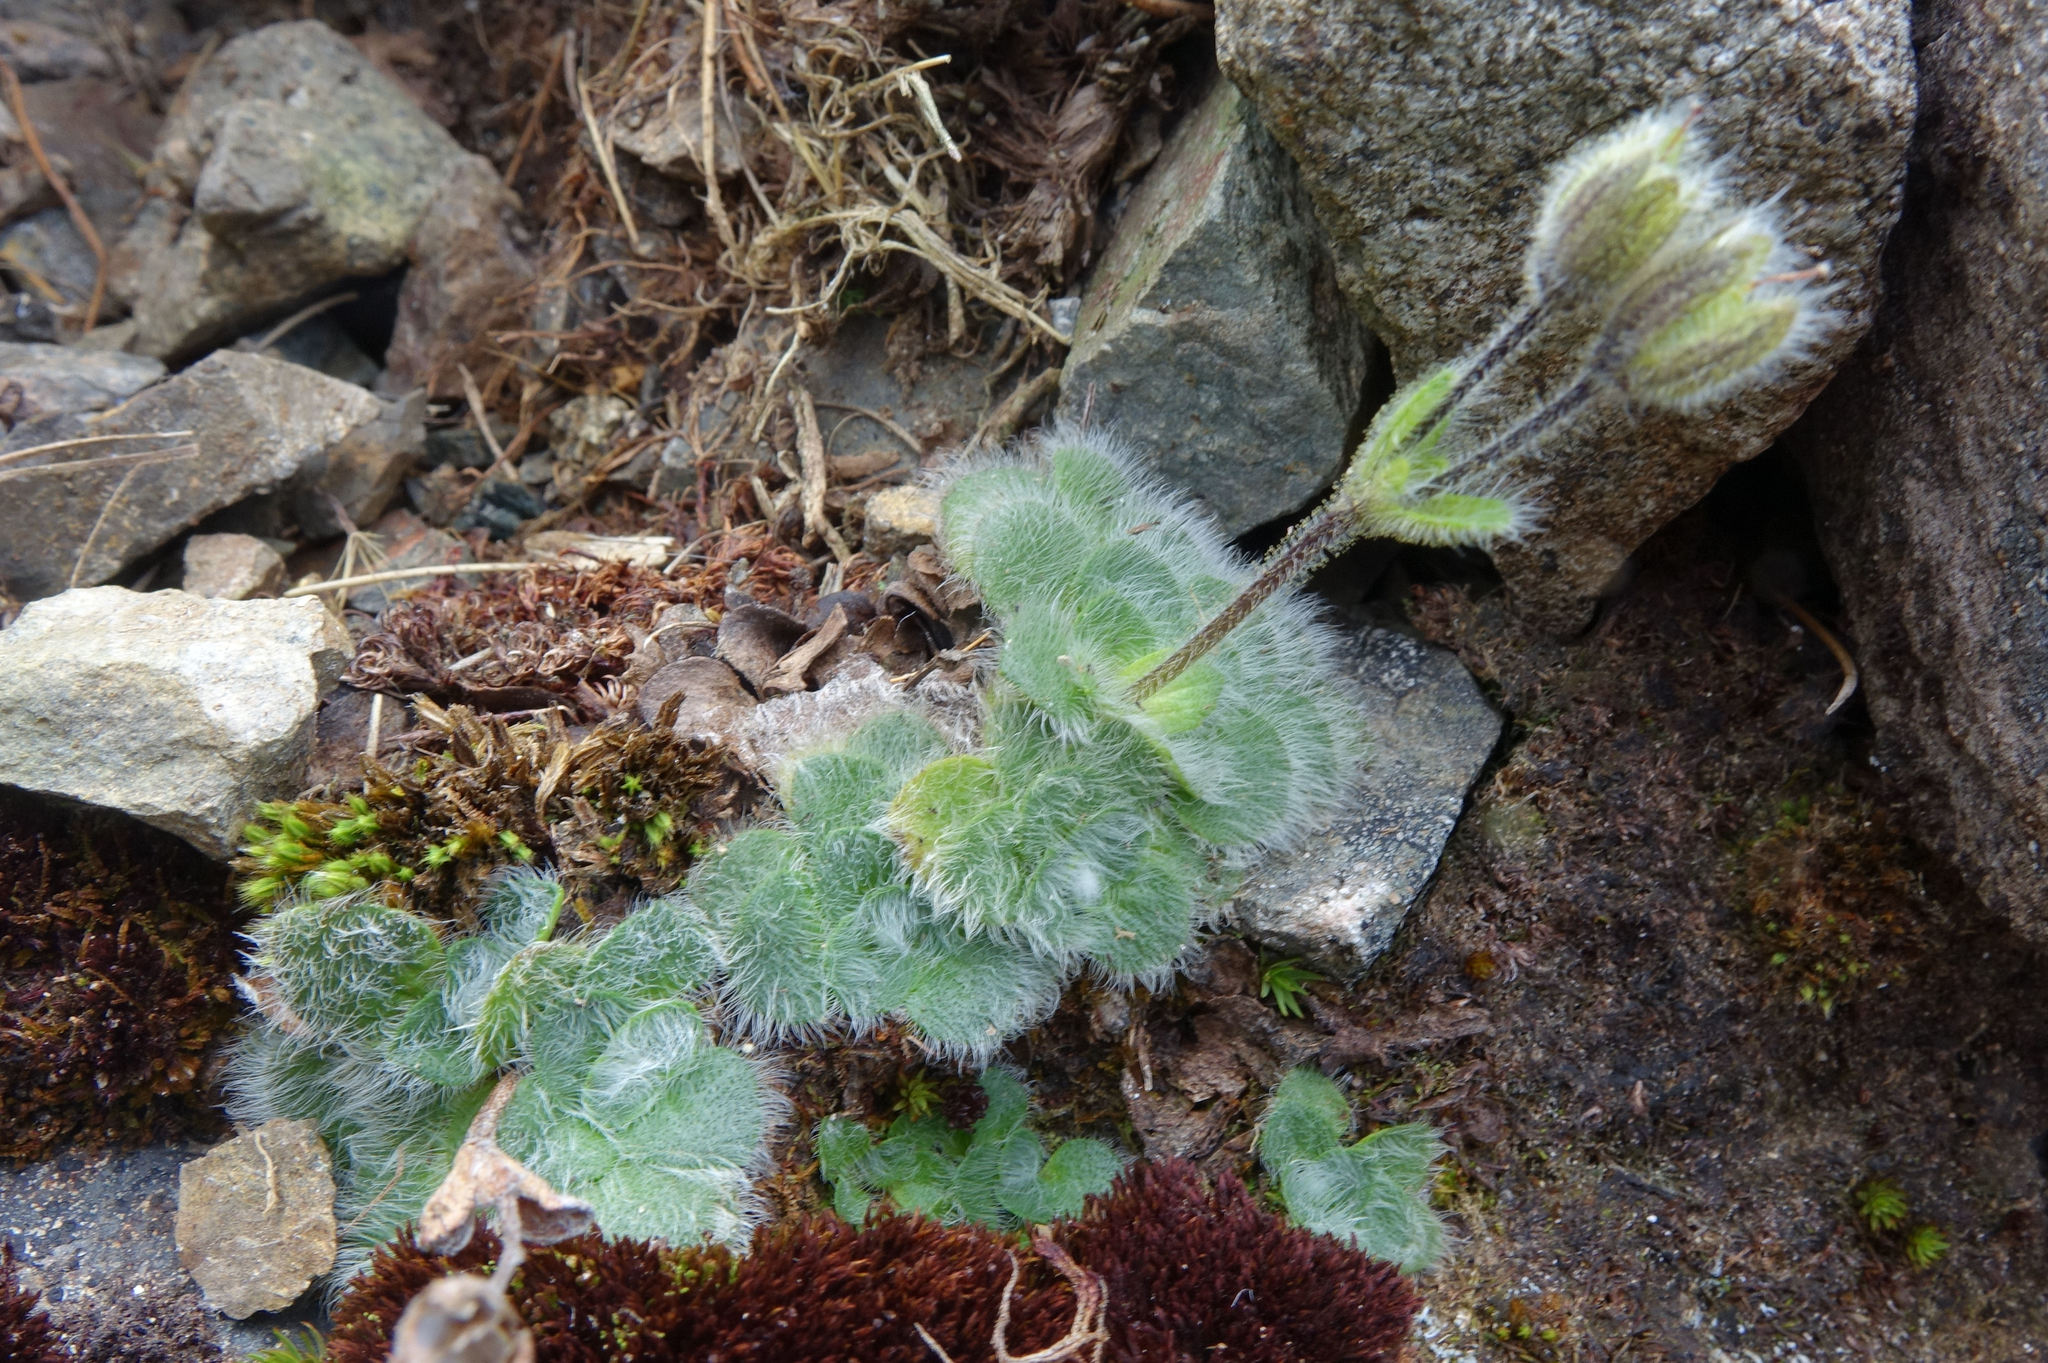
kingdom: Plantae
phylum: Tracheophyta
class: Magnoliopsida
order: Lamiales
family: Plantaginaceae
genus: Ourisia
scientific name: Ourisia confertifolia
